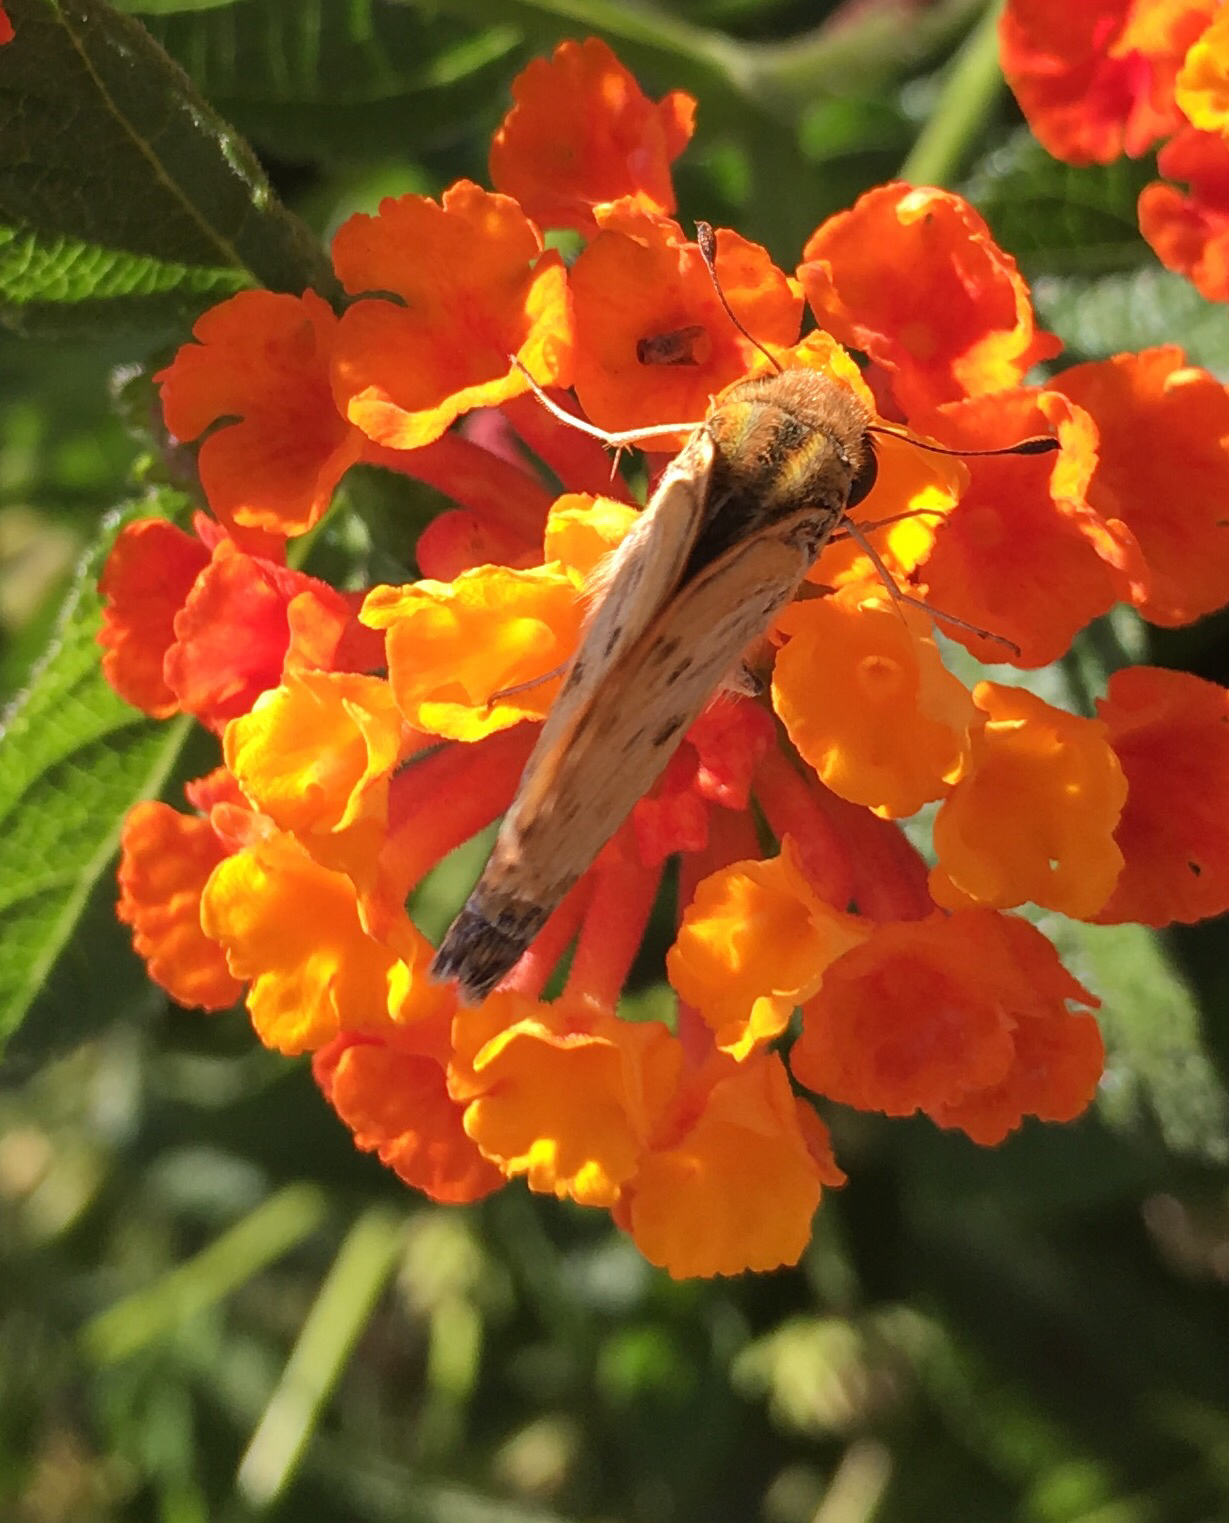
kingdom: Animalia
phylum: Arthropoda
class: Insecta
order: Lepidoptera
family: Hesperiidae
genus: Hylephila
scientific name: Hylephila phyleus
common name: Fiery skipper
